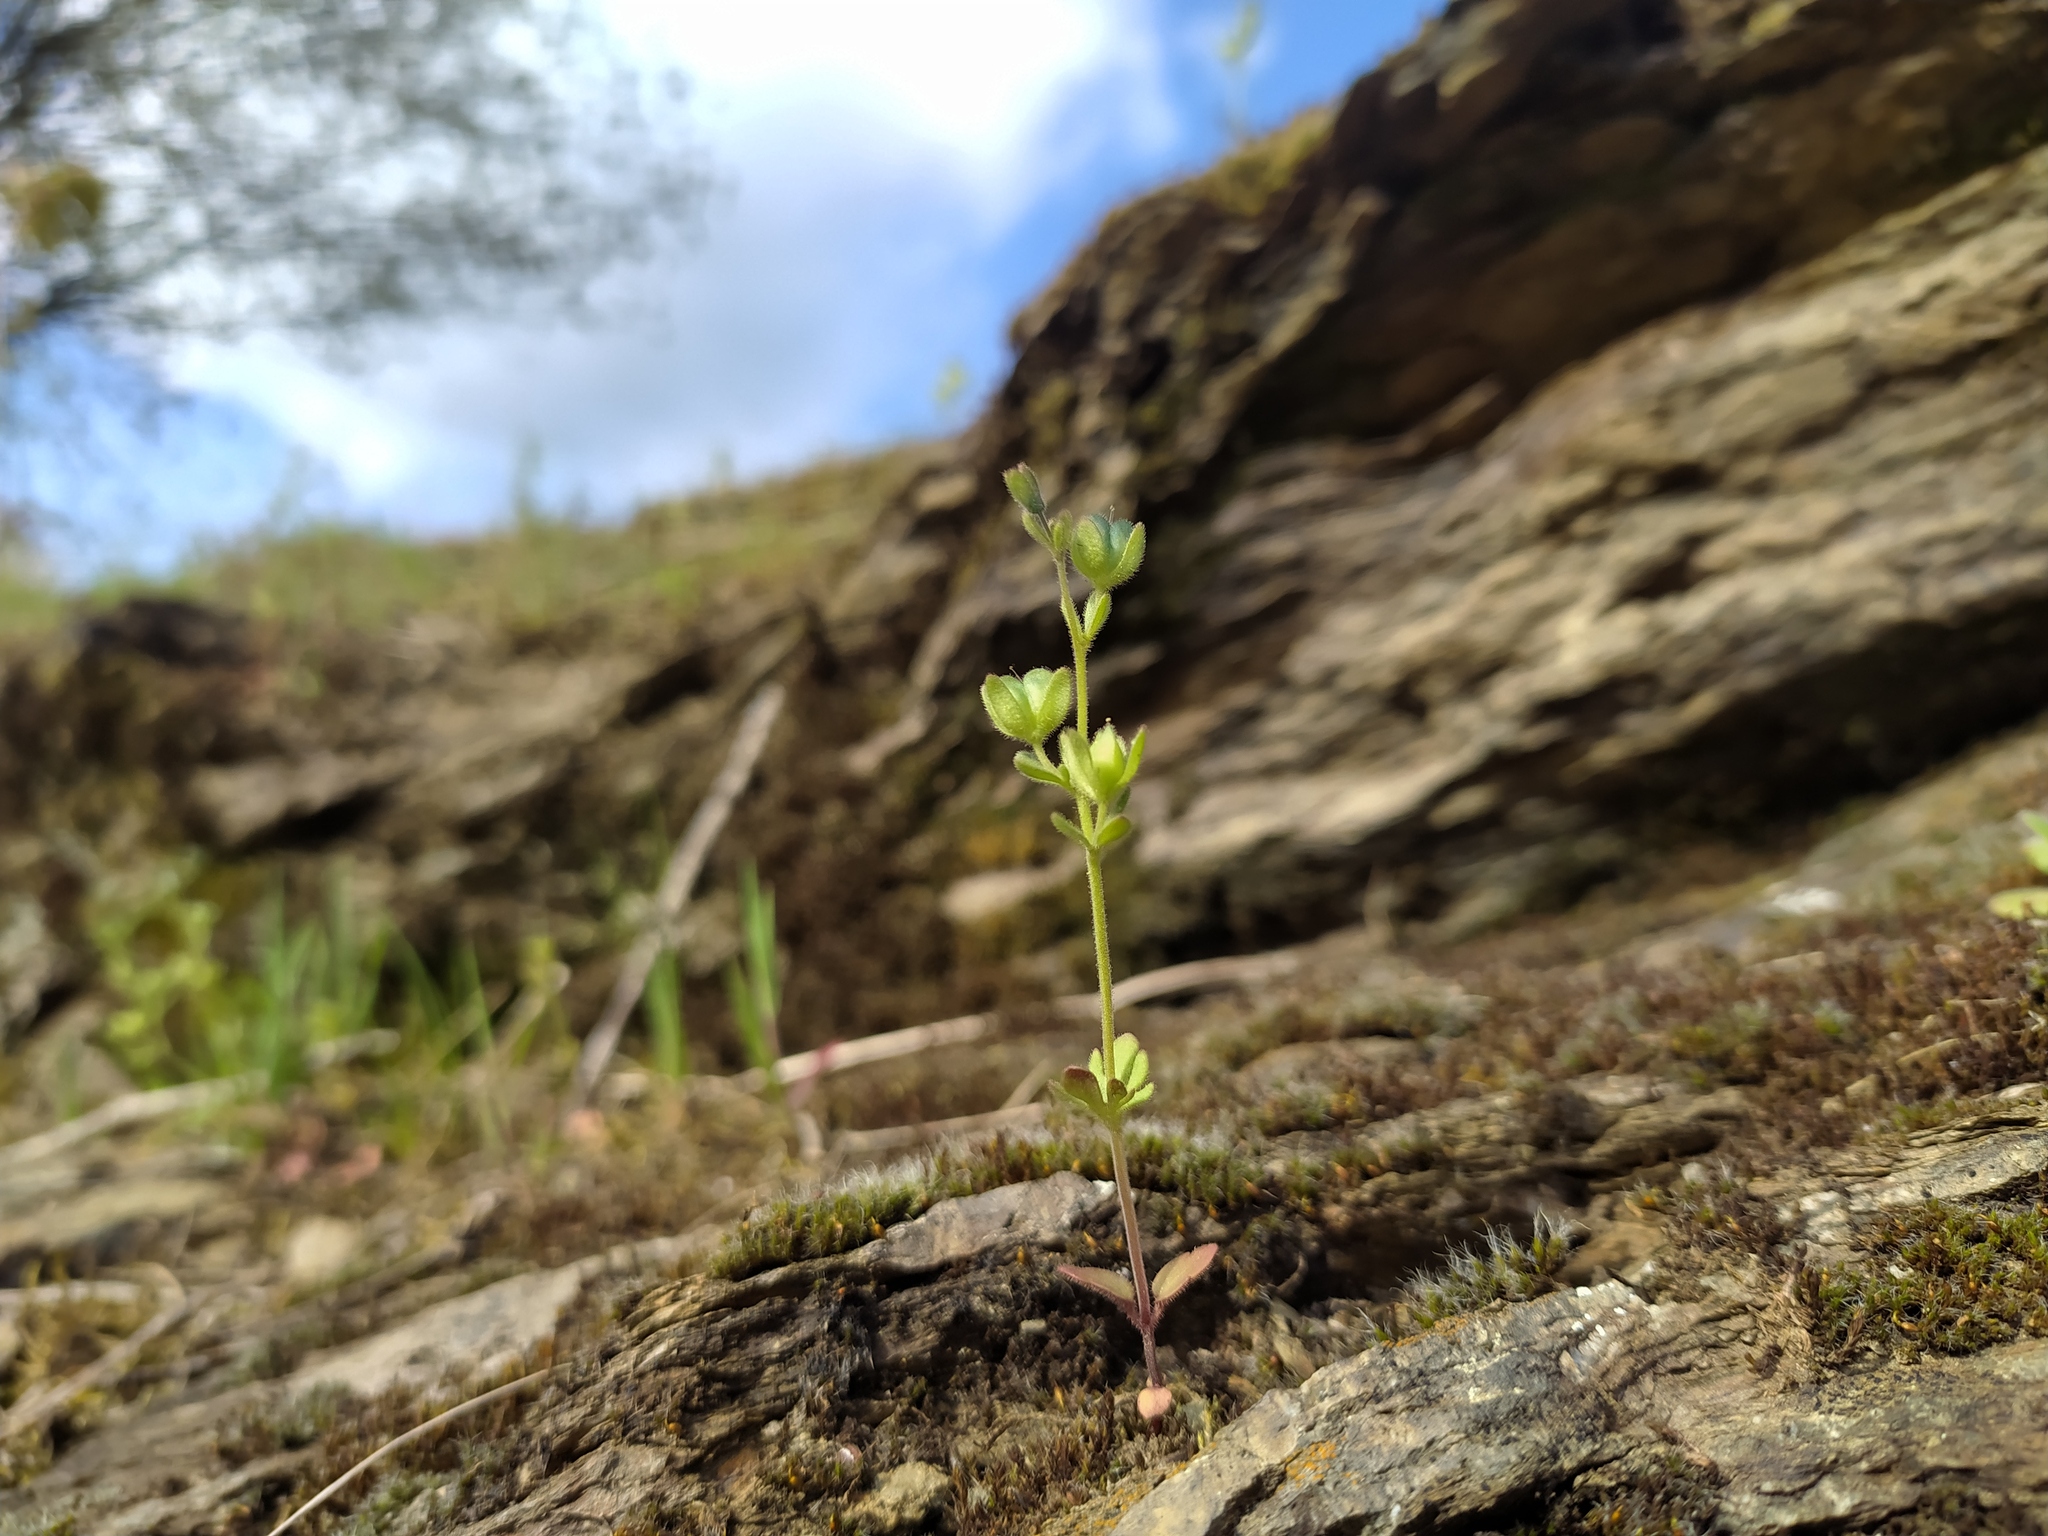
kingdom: Plantae
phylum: Tracheophyta
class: Magnoliopsida
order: Lamiales
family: Plantaginaceae
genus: Veronica
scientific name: Veronica triphyllos
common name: Fingered speedwell
